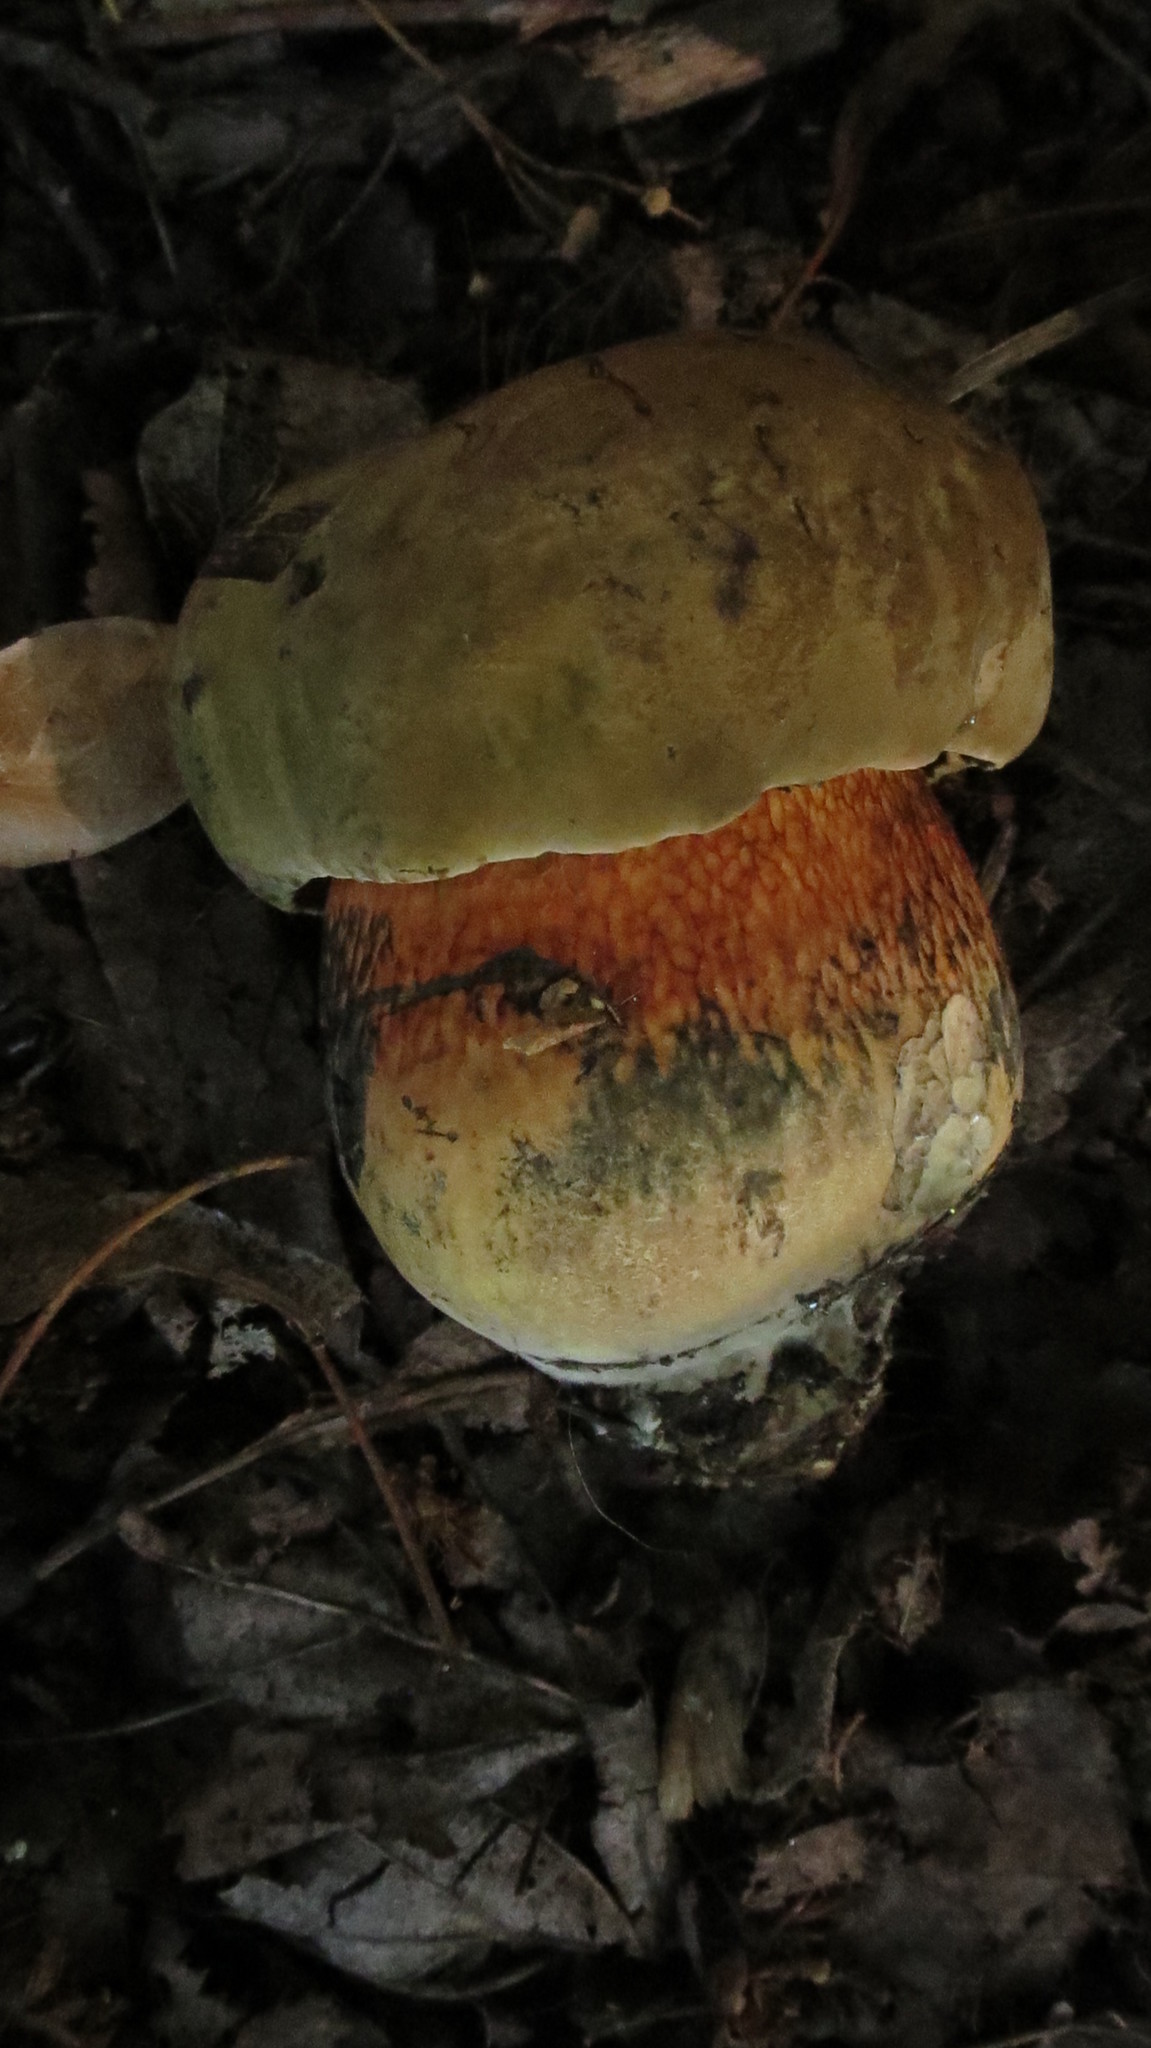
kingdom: Fungi
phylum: Basidiomycota
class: Agaricomycetes
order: Boletales
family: Boletaceae
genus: Suillellus
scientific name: Suillellus luridus
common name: Lurid bolete
